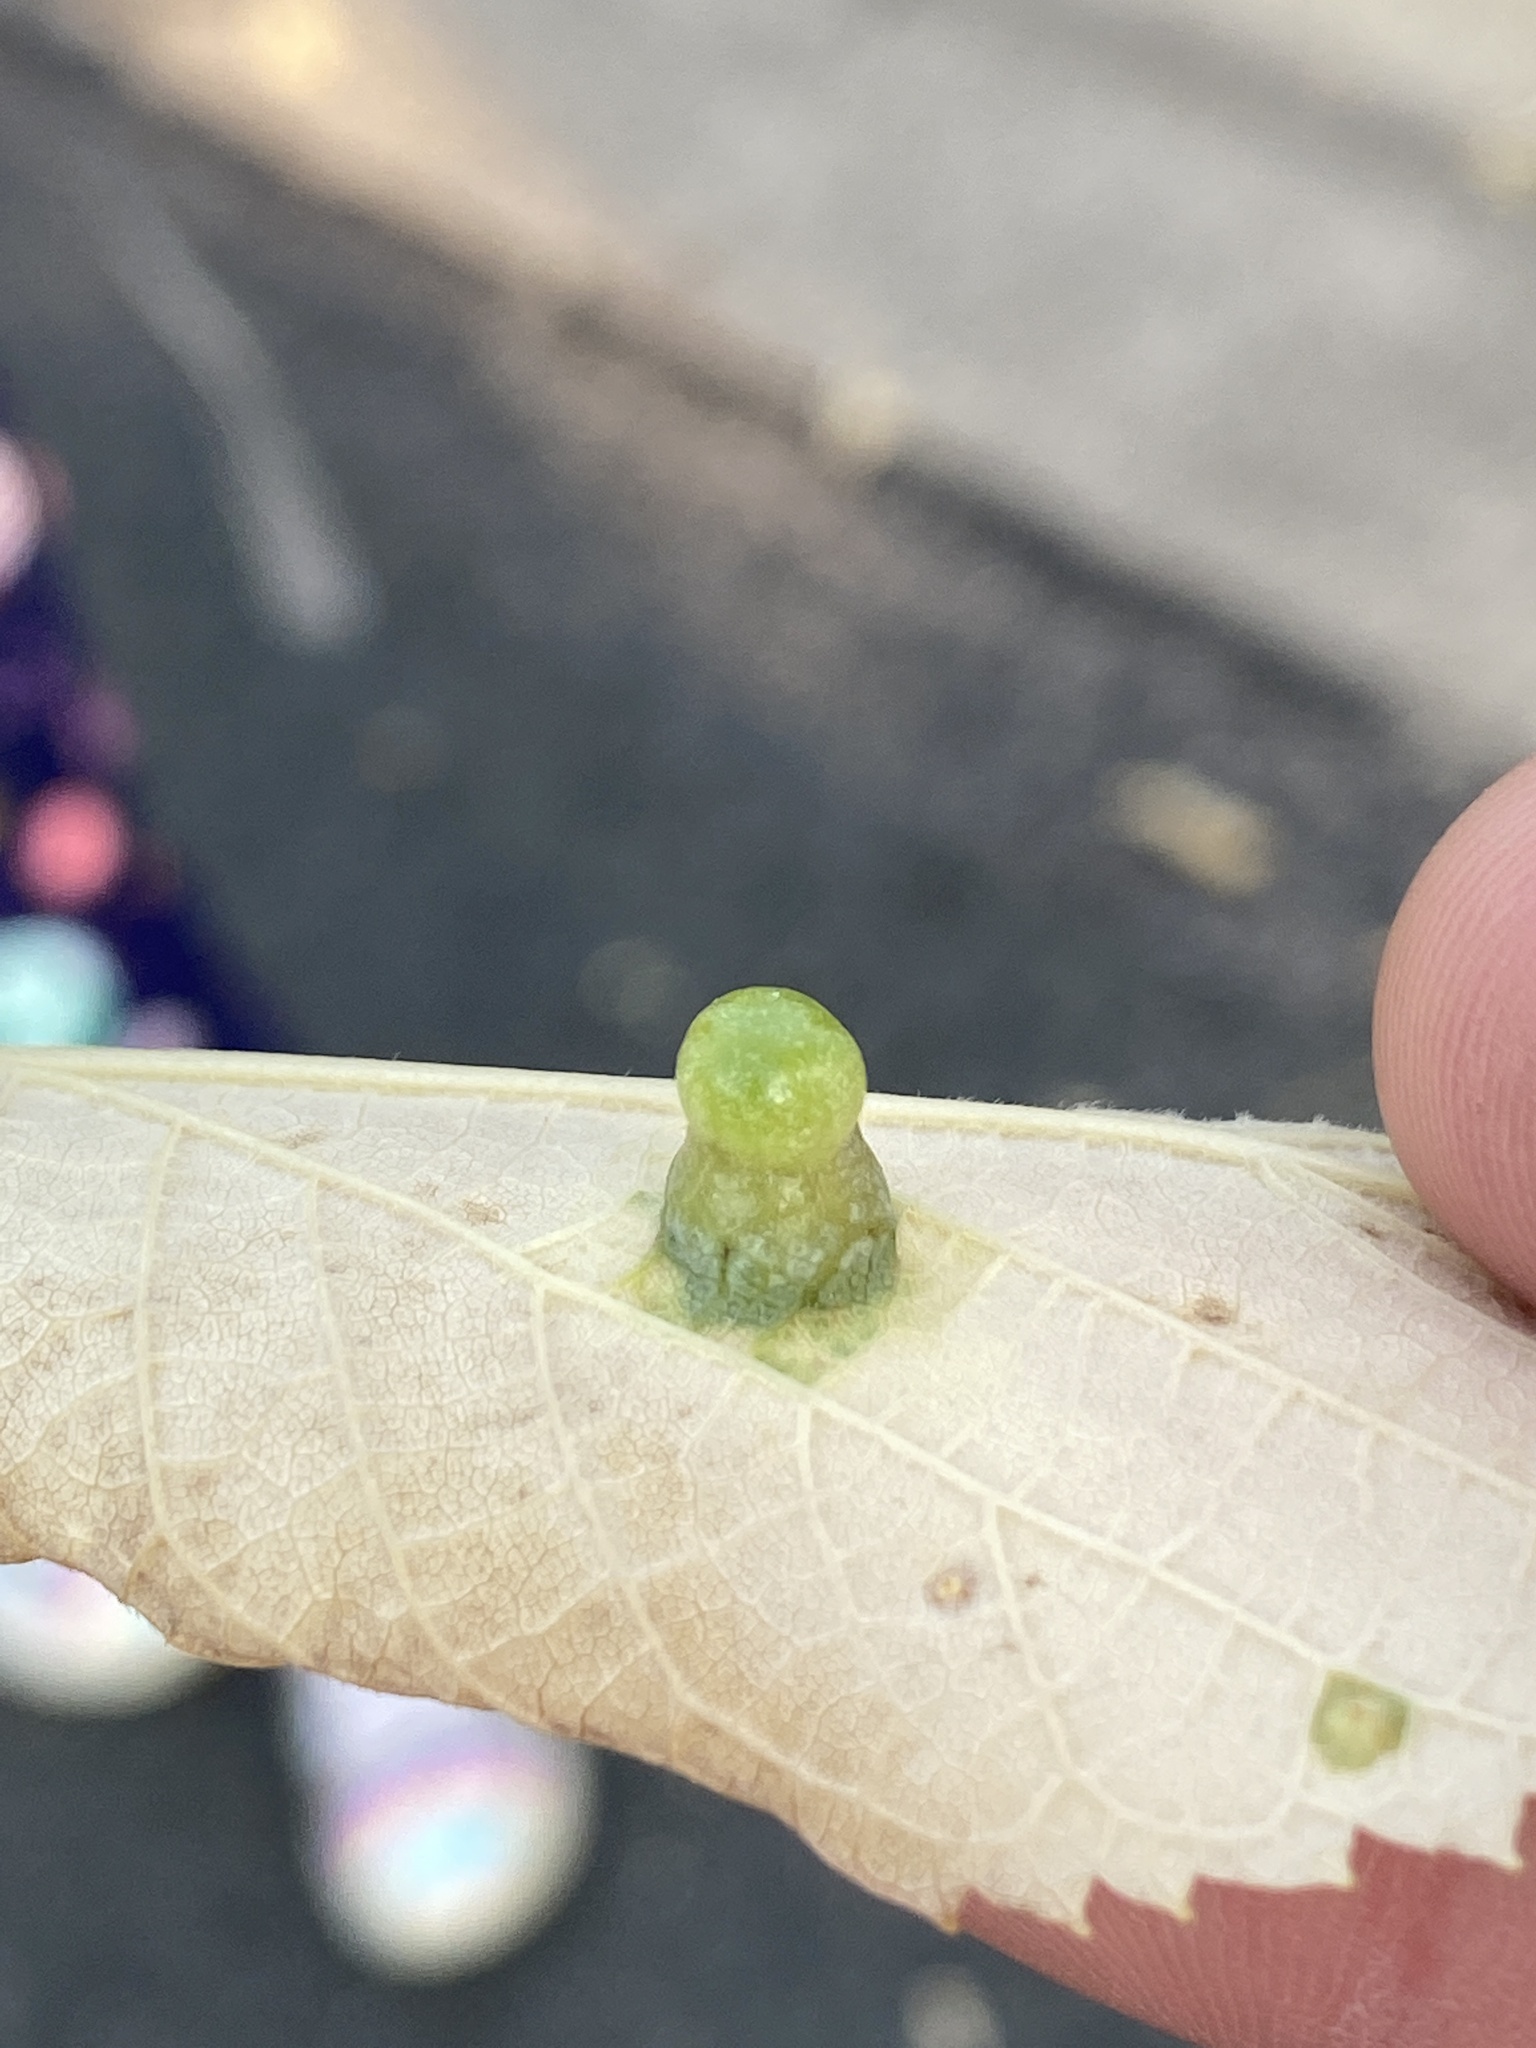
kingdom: Animalia
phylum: Arthropoda
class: Insecta
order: Hemiptera
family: Aphalaridae
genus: Pachypsylla
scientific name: Pachypsylla celtidismamma
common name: Hackberry nipplegall psyllid
